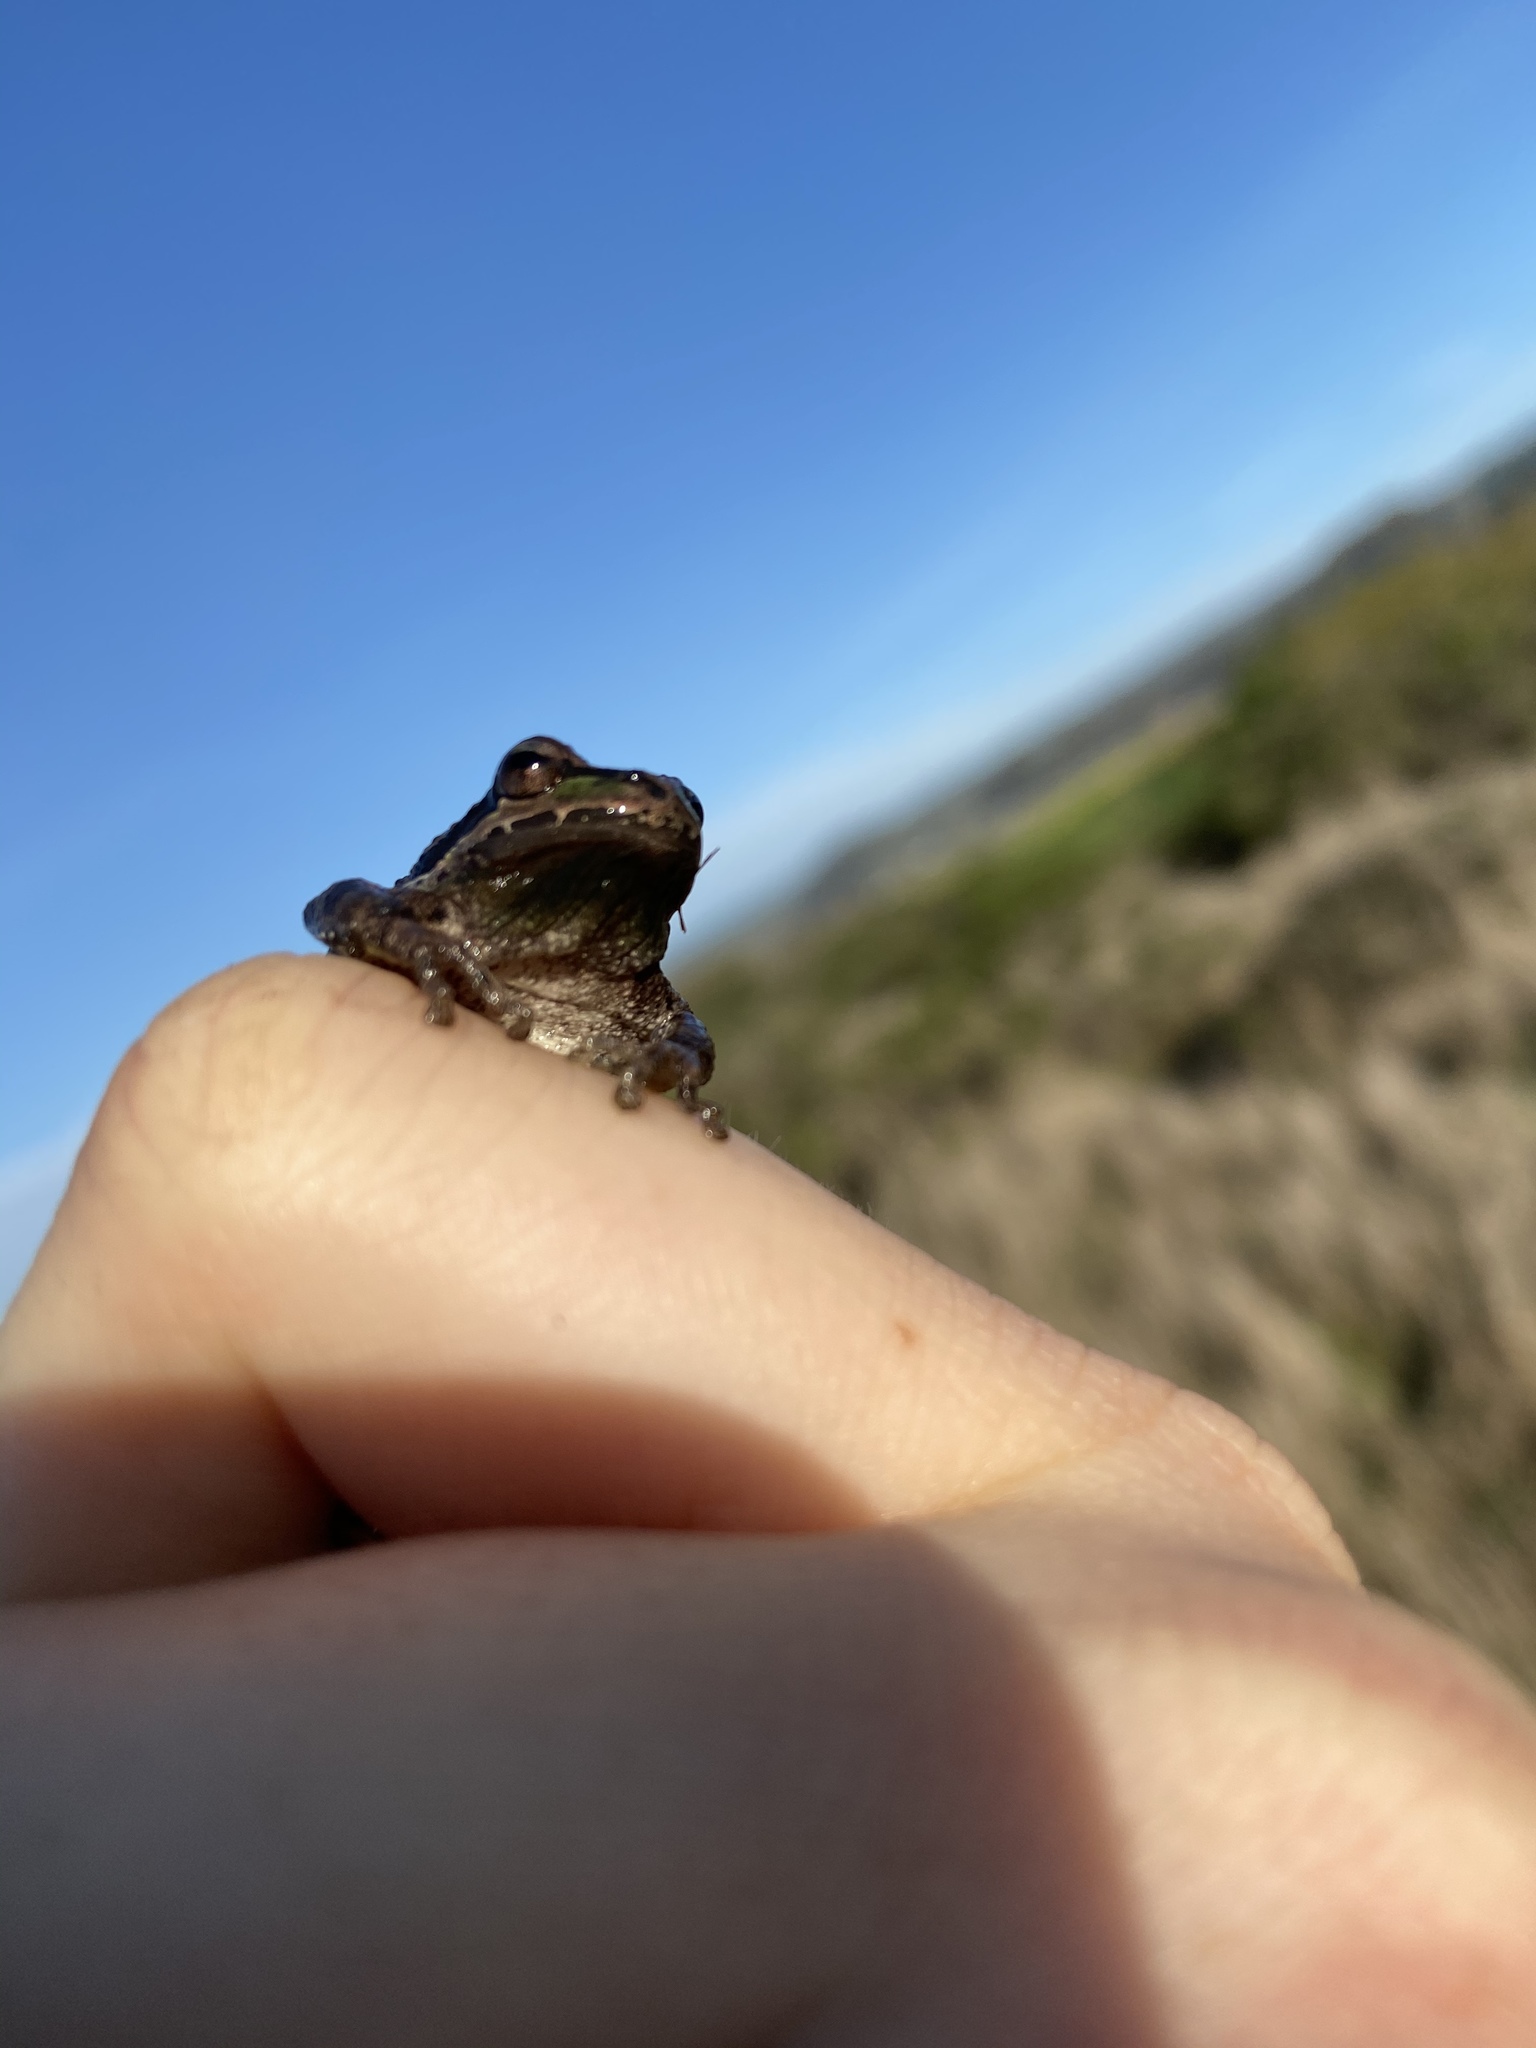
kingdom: Animalia
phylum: Chordata
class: Amphibia
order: Anura
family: Hylidae
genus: Pseudacris
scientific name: Pseudacris regilla
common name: Pacific chorus frog
